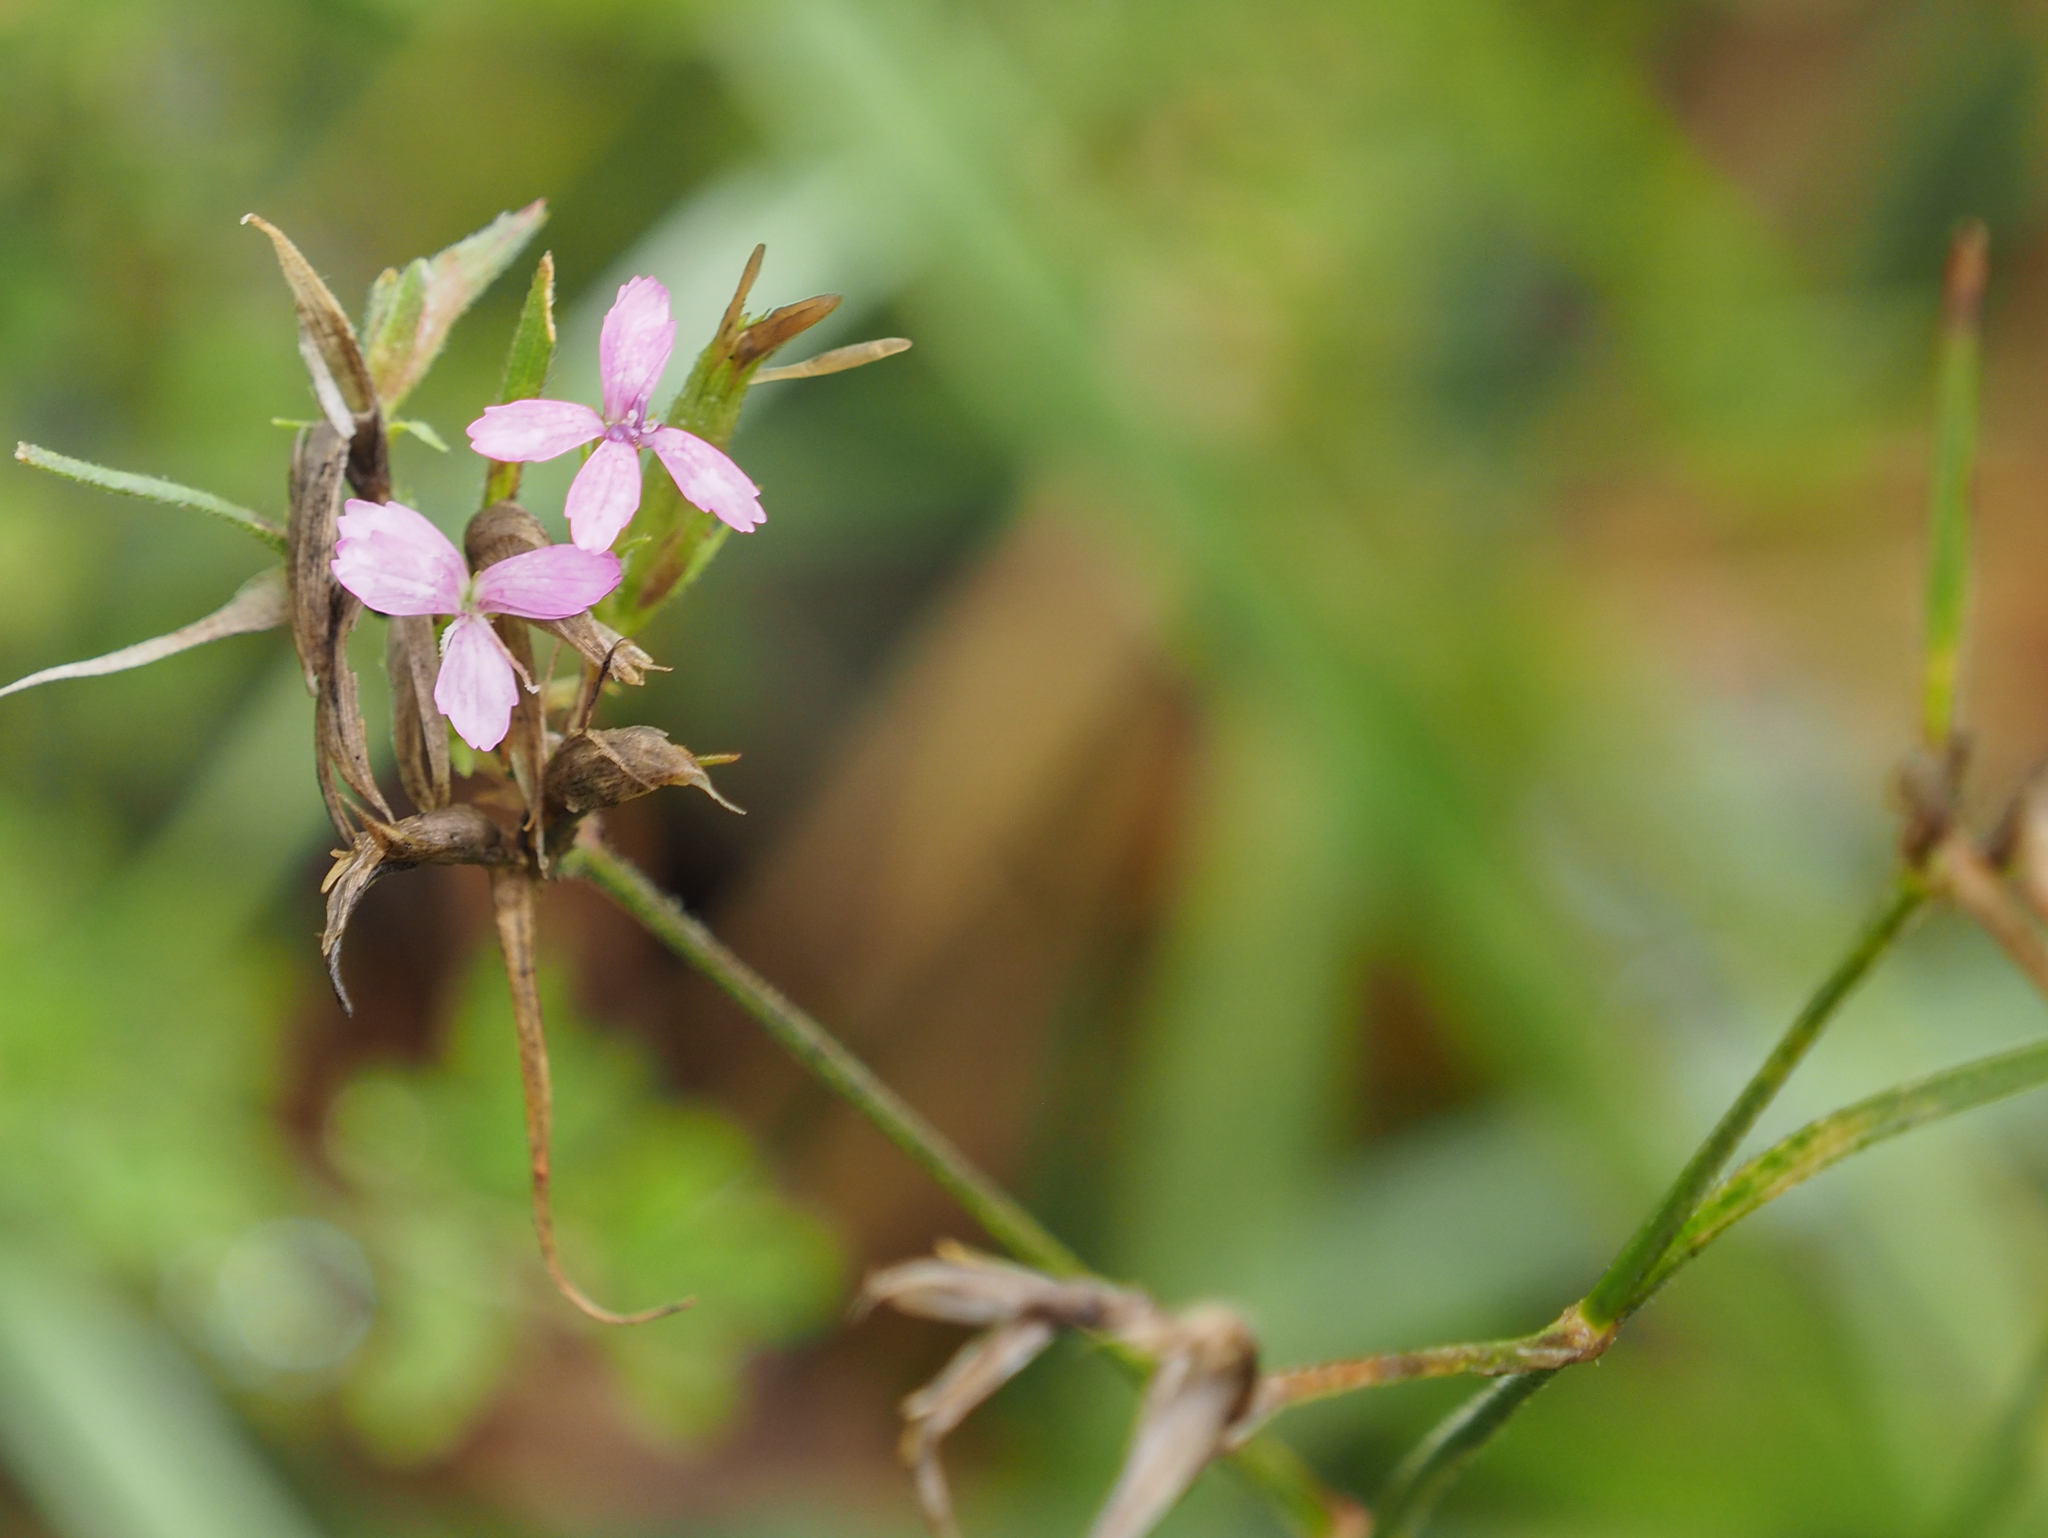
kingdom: Plantae
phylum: Tracheophyta
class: Magnoliopsida
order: Caryophyllales
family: Caryophyllaceae
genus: Dianthus
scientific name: Dianthus armeria
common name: Deptford pink
